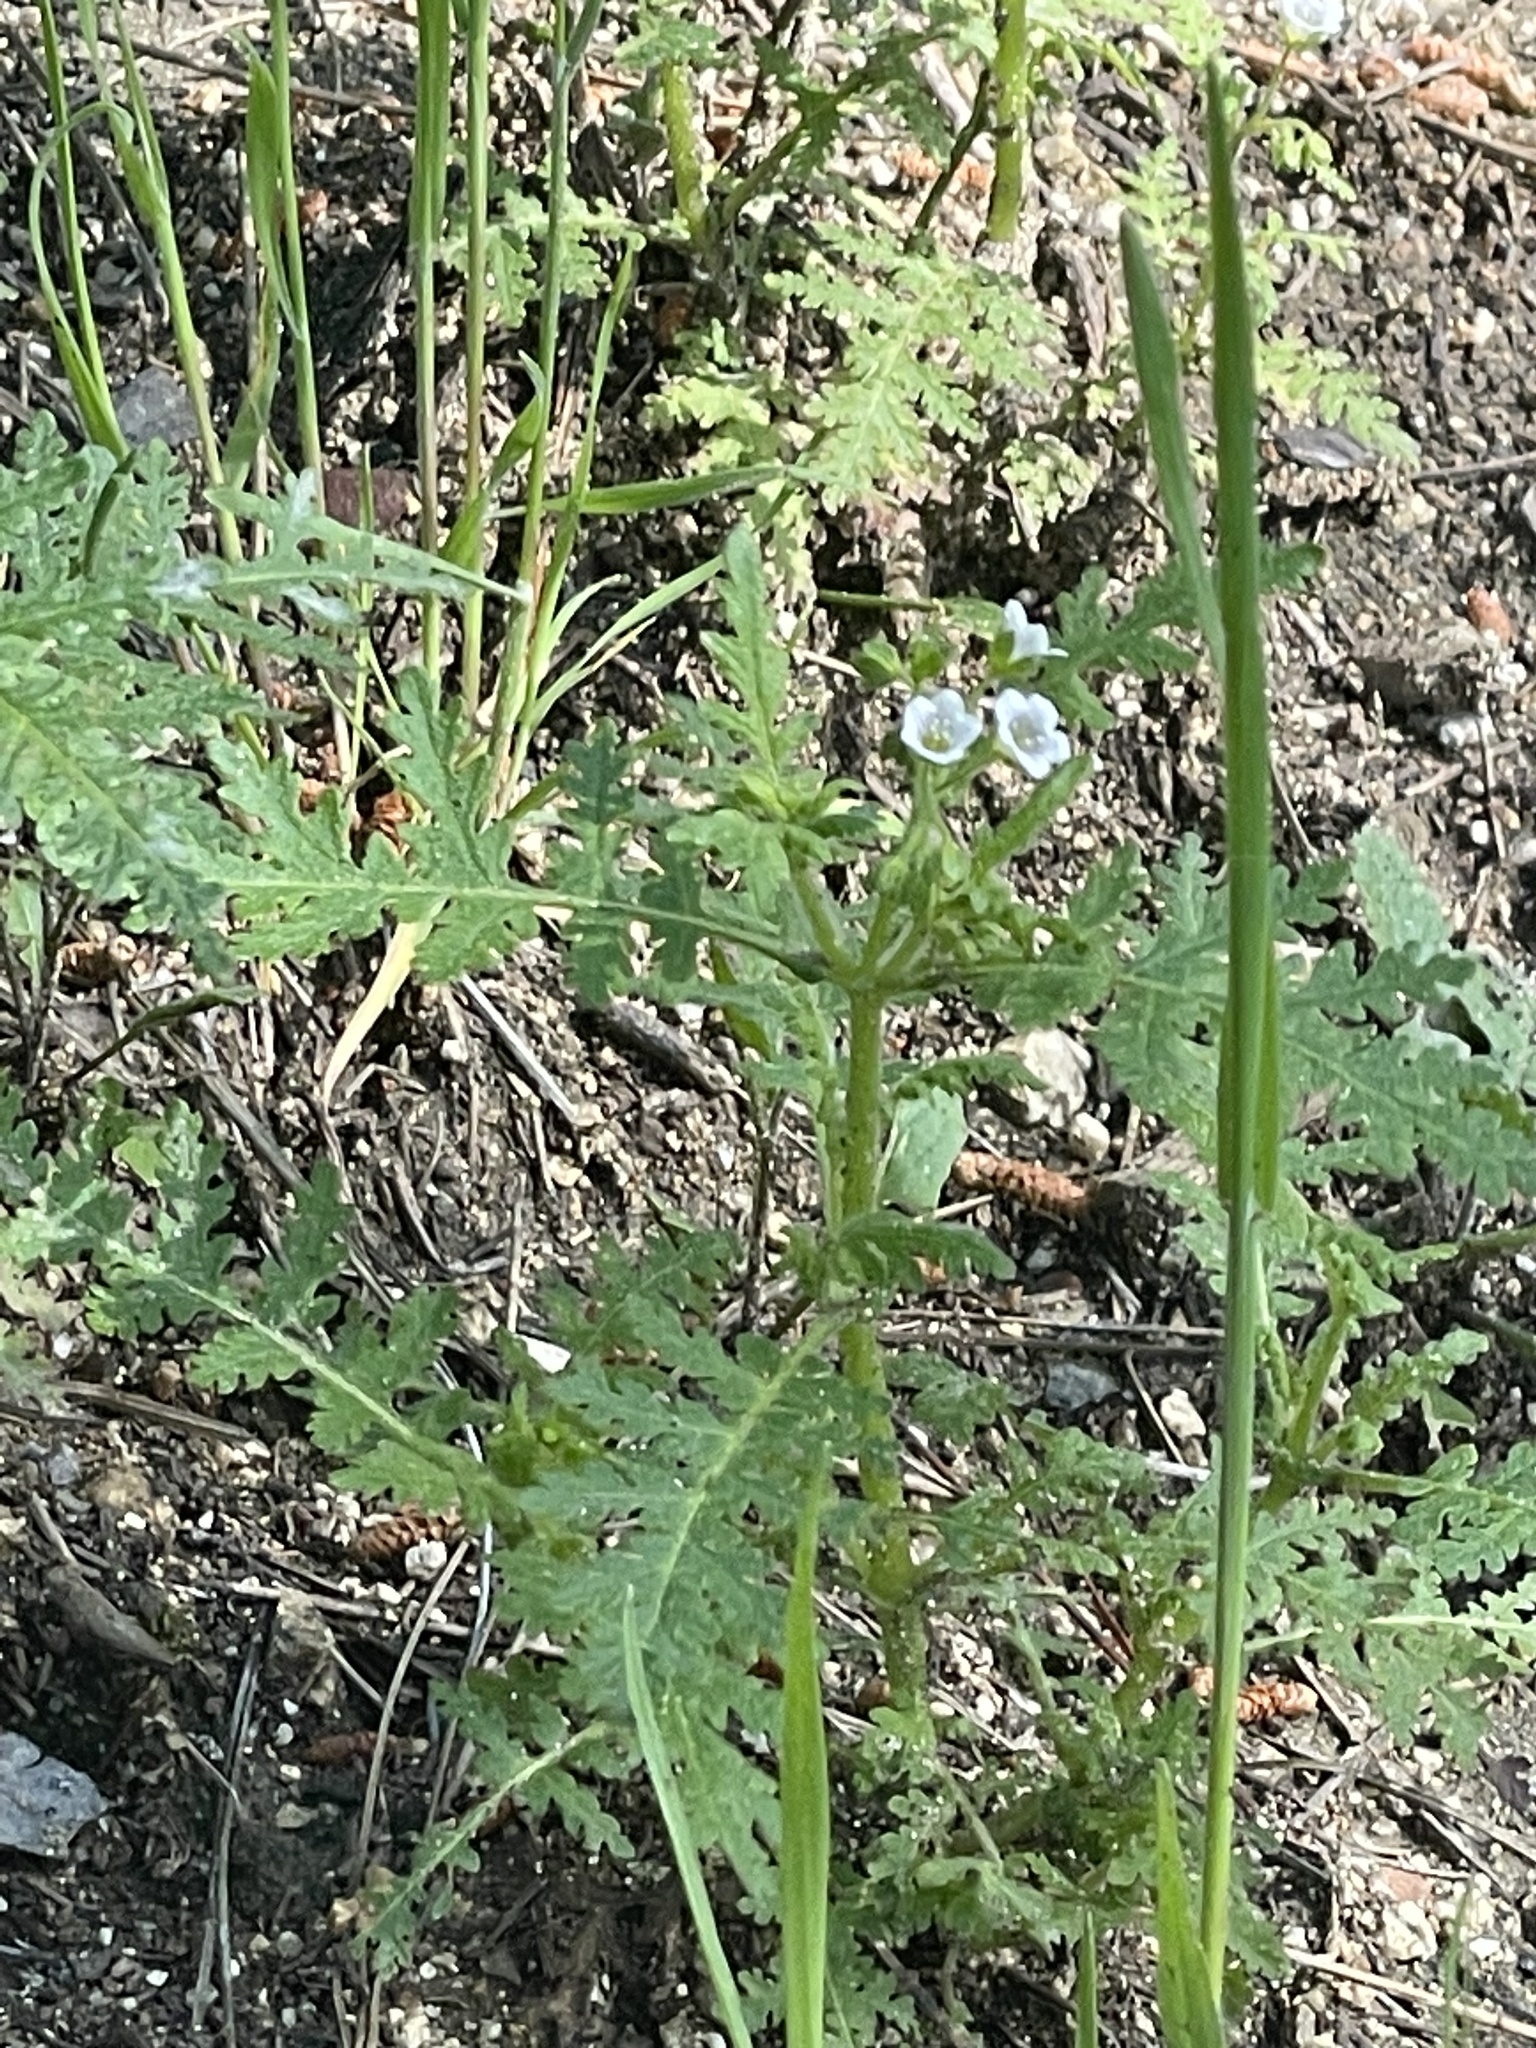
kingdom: Plantae
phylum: Tracheophyta
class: Magnoliopsida
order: Boraginales
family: Hydrophyllaceae
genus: Eucrypta
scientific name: Eucrypta chrysanthemifolia
